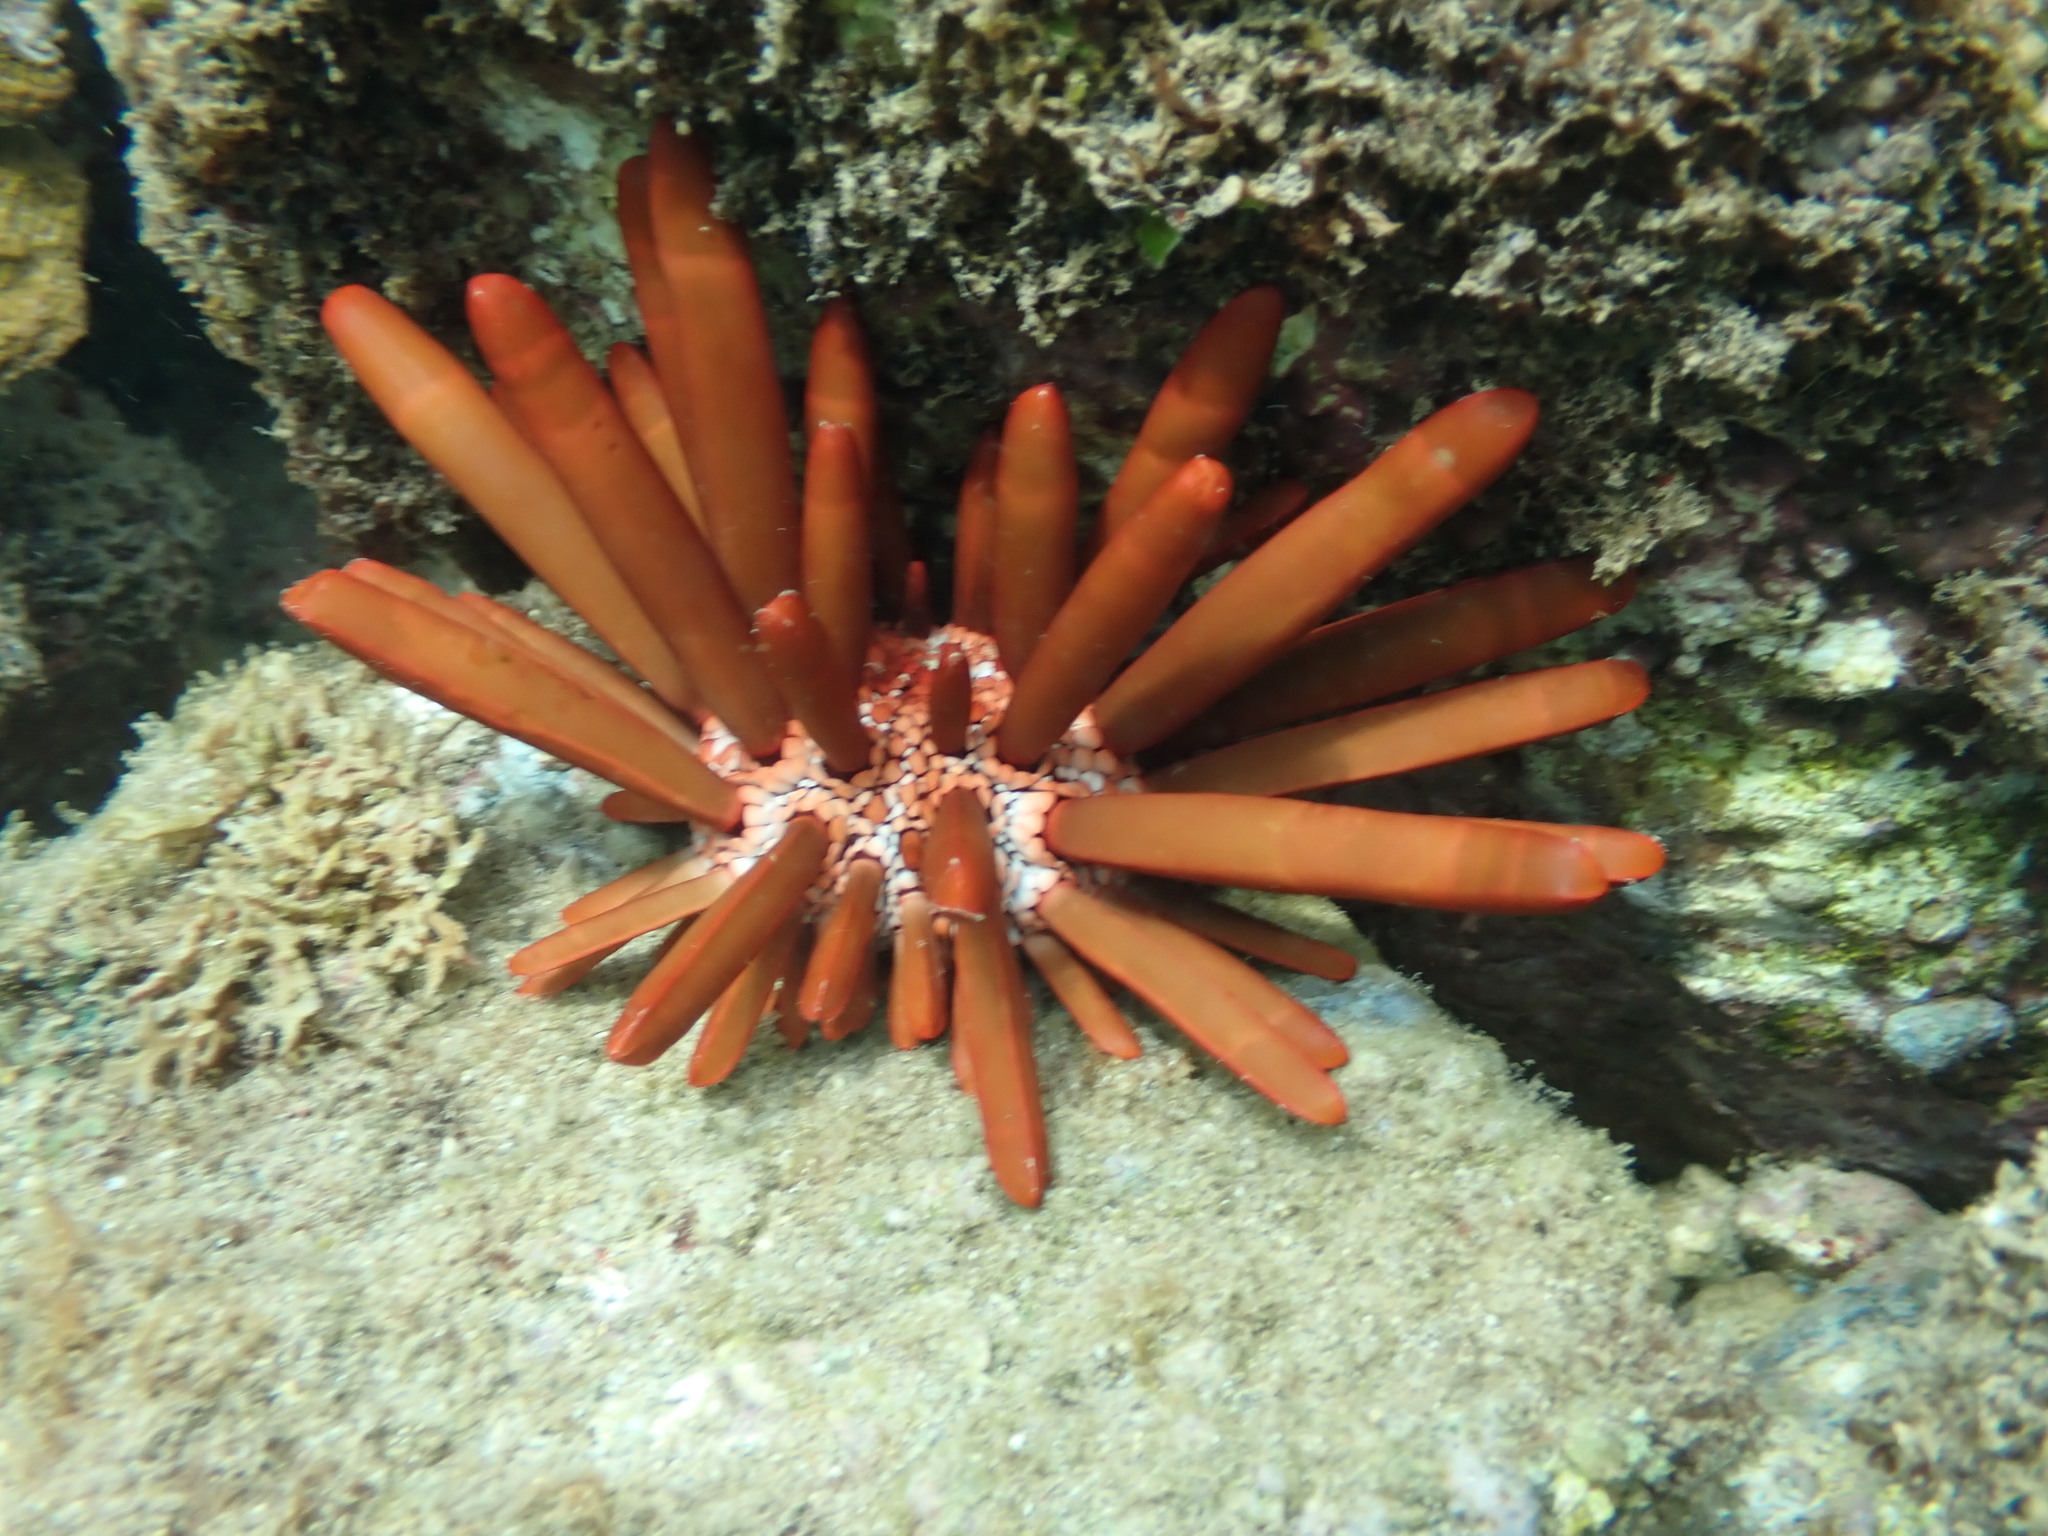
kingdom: Animalia
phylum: Echinodermata
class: Echinoidea
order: Camarodonta
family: Echinometridae
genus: Heterocentrotus
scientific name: Heterocentrotus mamillatus
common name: Slate pencil urchin
